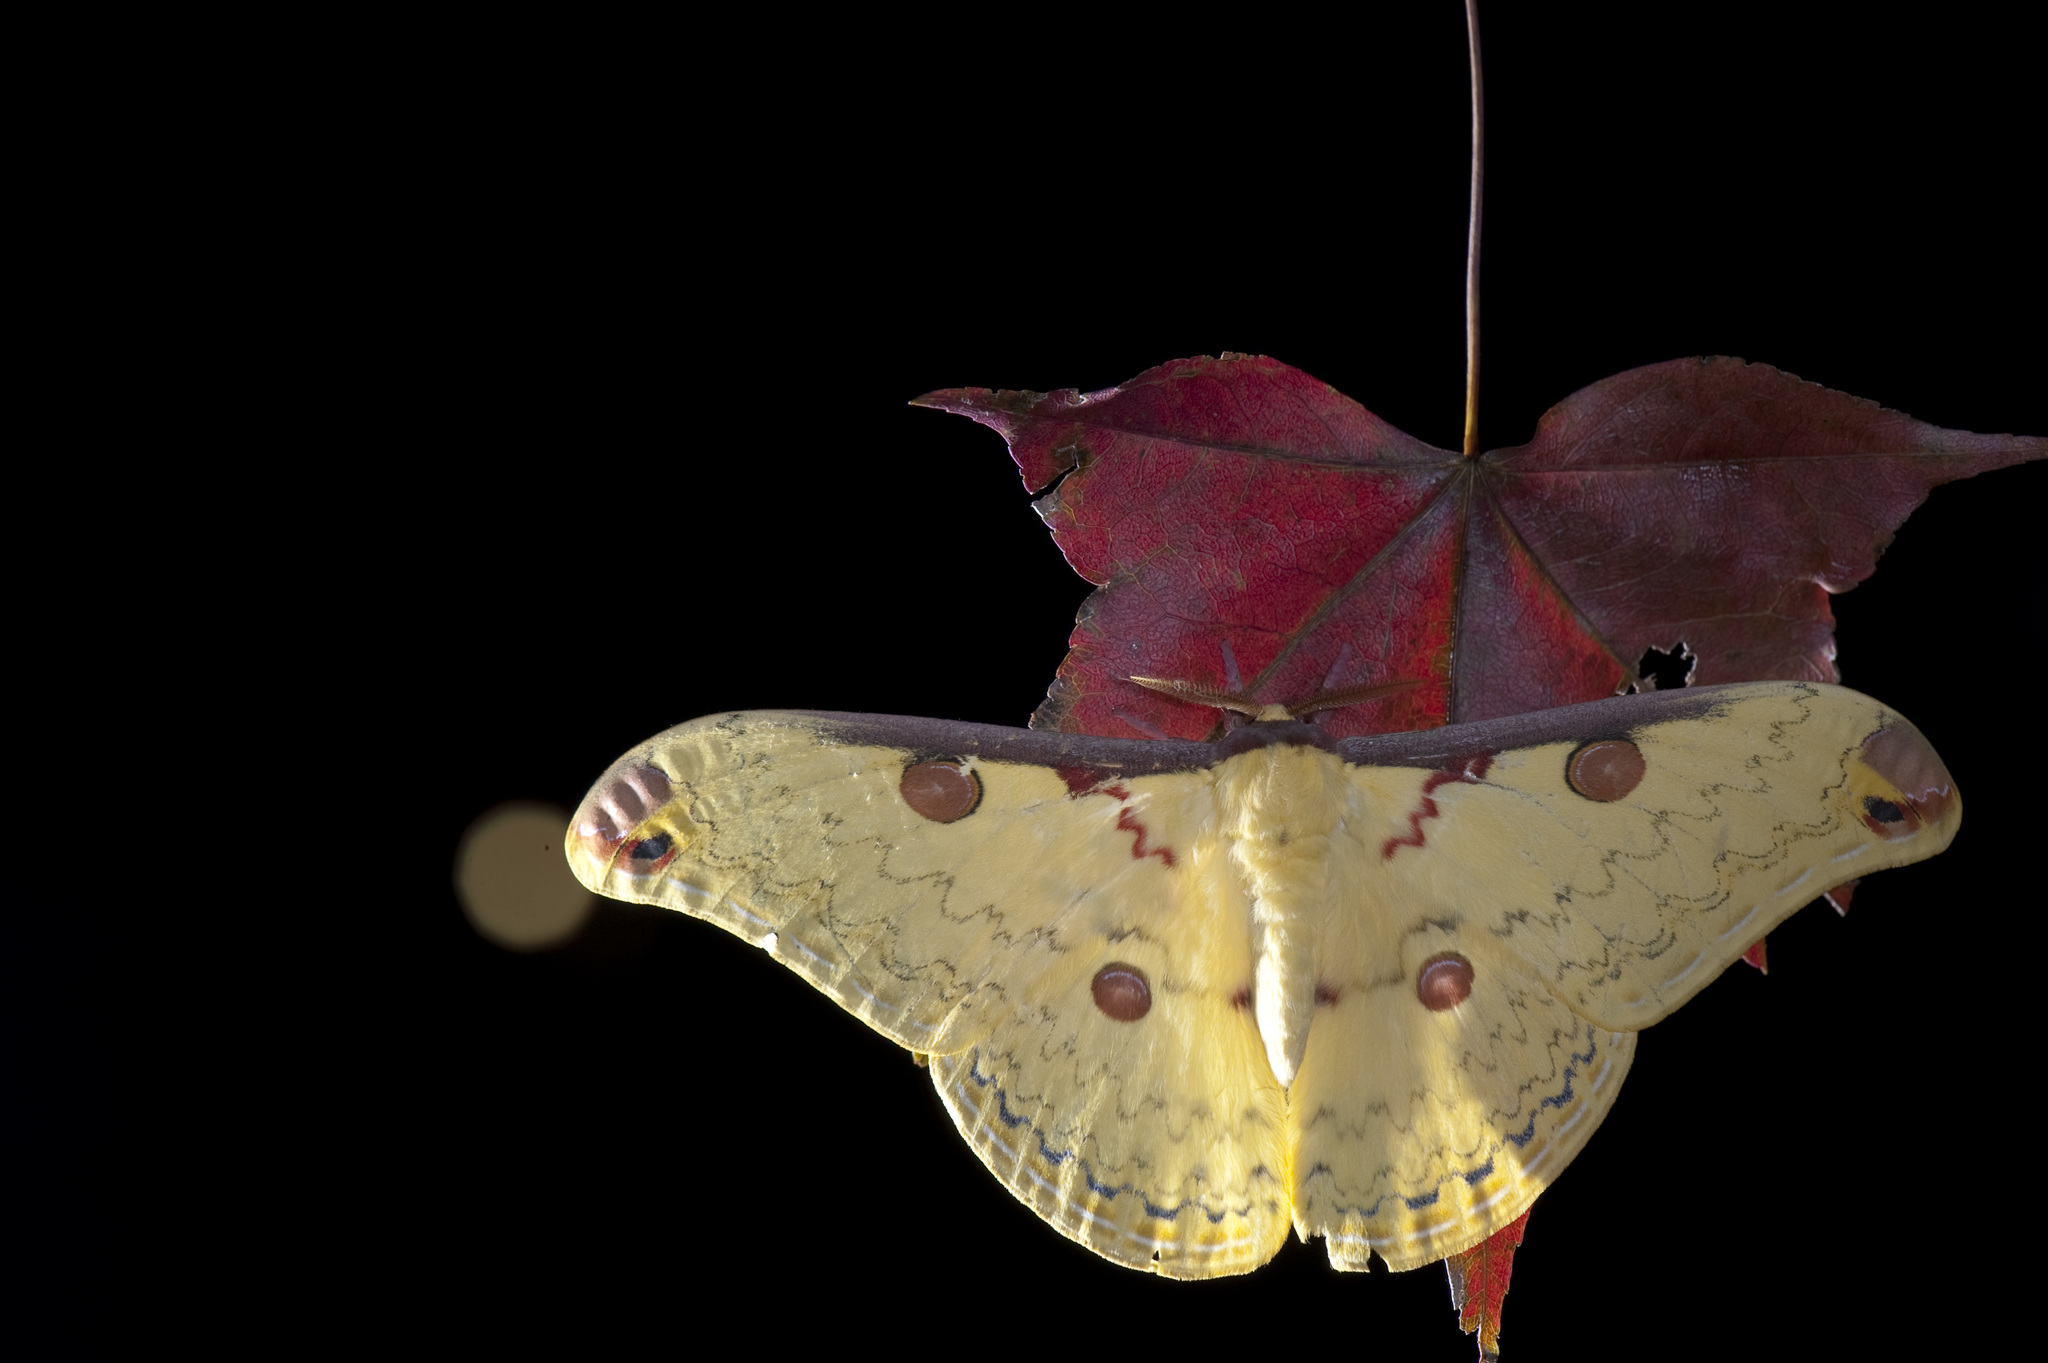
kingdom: Animalia
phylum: Arthropoda
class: Insecta
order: Lepidoptera
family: Saturniidae
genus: Loepa
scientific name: Loepa mirandula
